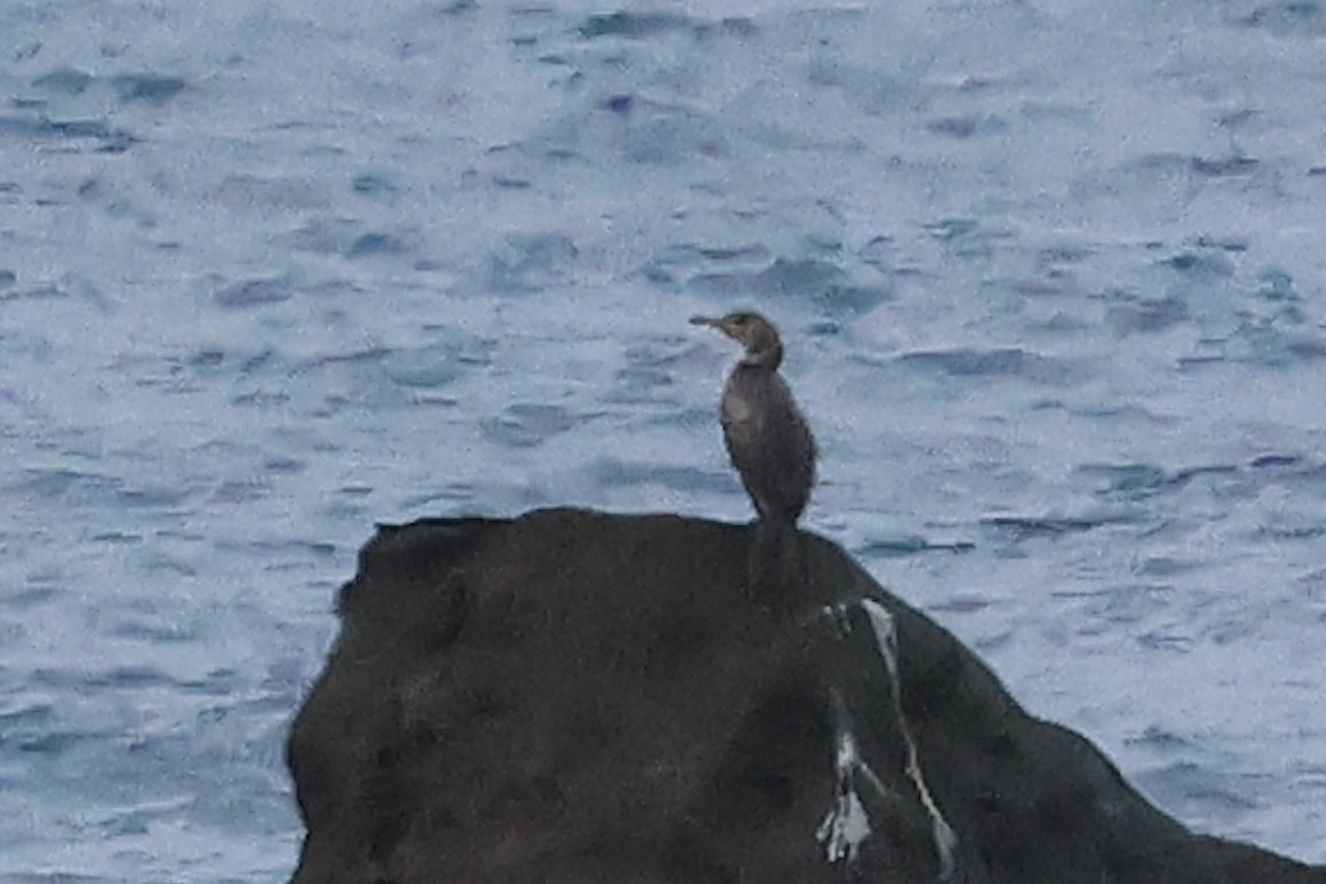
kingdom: Animalia
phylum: Chordata
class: Aves
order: Suliformes
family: Phalacrocoracidae
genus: Phalacrocorax
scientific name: Phalacrocorax capillatus
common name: Japanese cormorant
